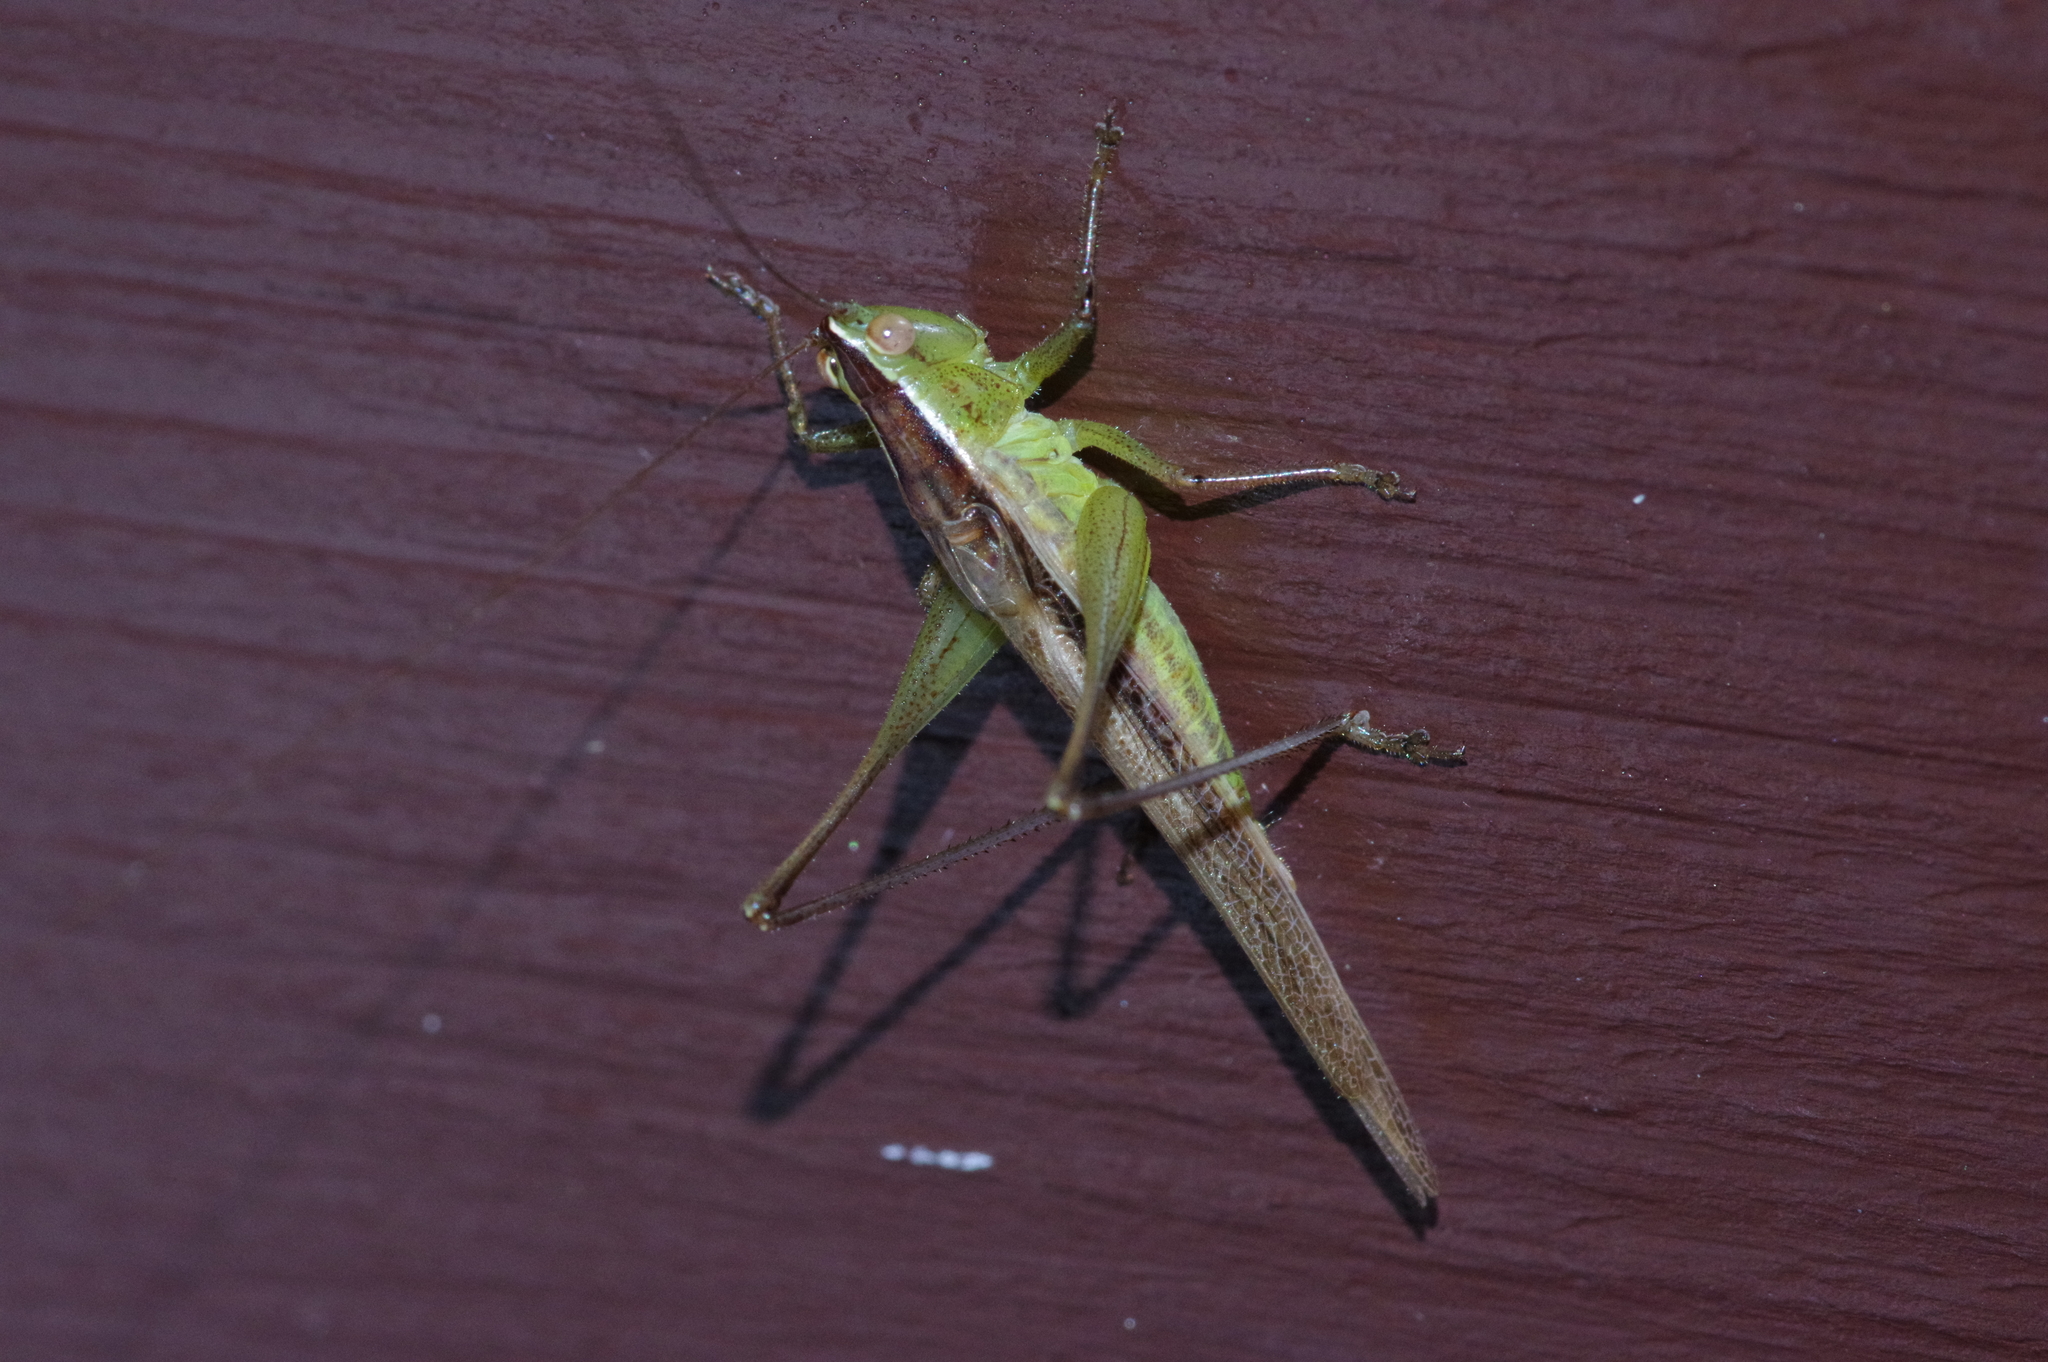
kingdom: Animalia
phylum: Arthropoda
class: Insecta
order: Orthoptera
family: Tettigoniidae
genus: Conocephalus
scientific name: Conocephalus maculatus
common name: Spotted meadow katydid
